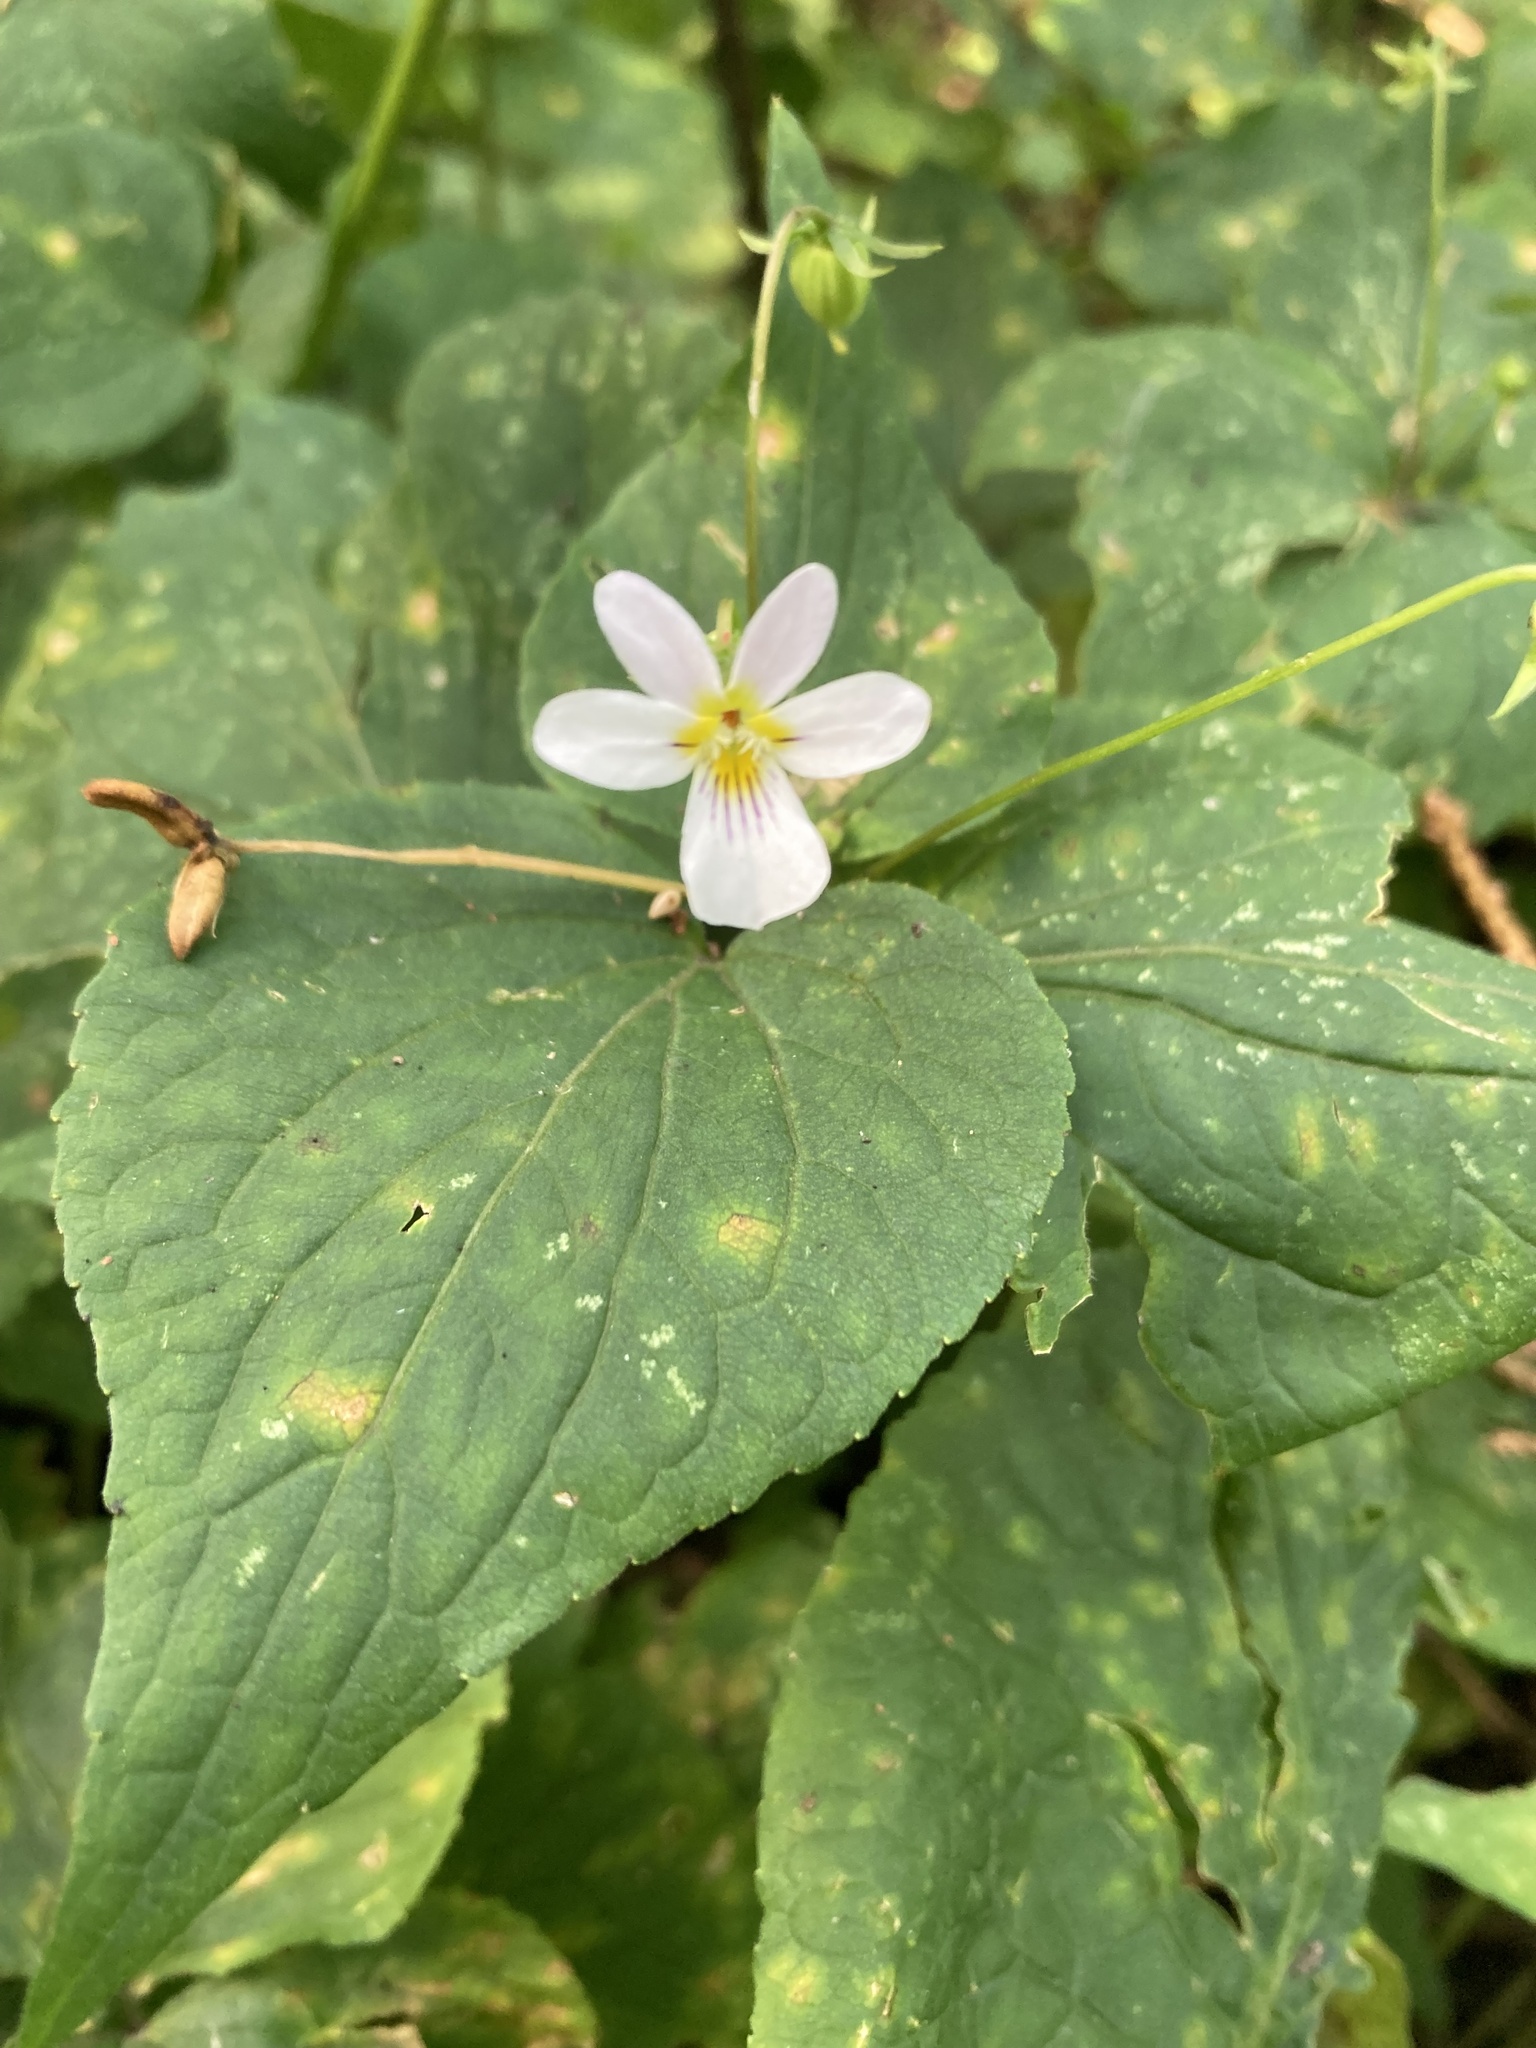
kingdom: Plantae
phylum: Tracheophyta
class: Magnoliopsida
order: Malpighiales
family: Violaceae
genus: Viola
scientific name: Viola canadensis
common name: Canada violet
